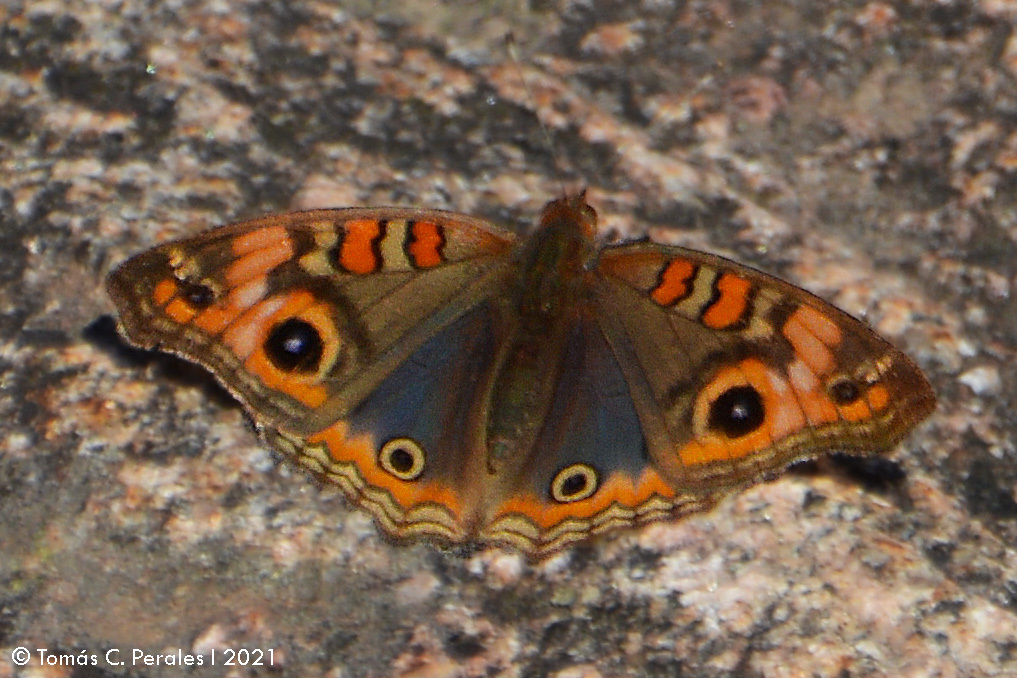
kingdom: Animalia
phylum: Arthropoda
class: Insecta
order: Lepidoptera
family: Nymphalidae
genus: Junonia
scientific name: Junonia lavinia
